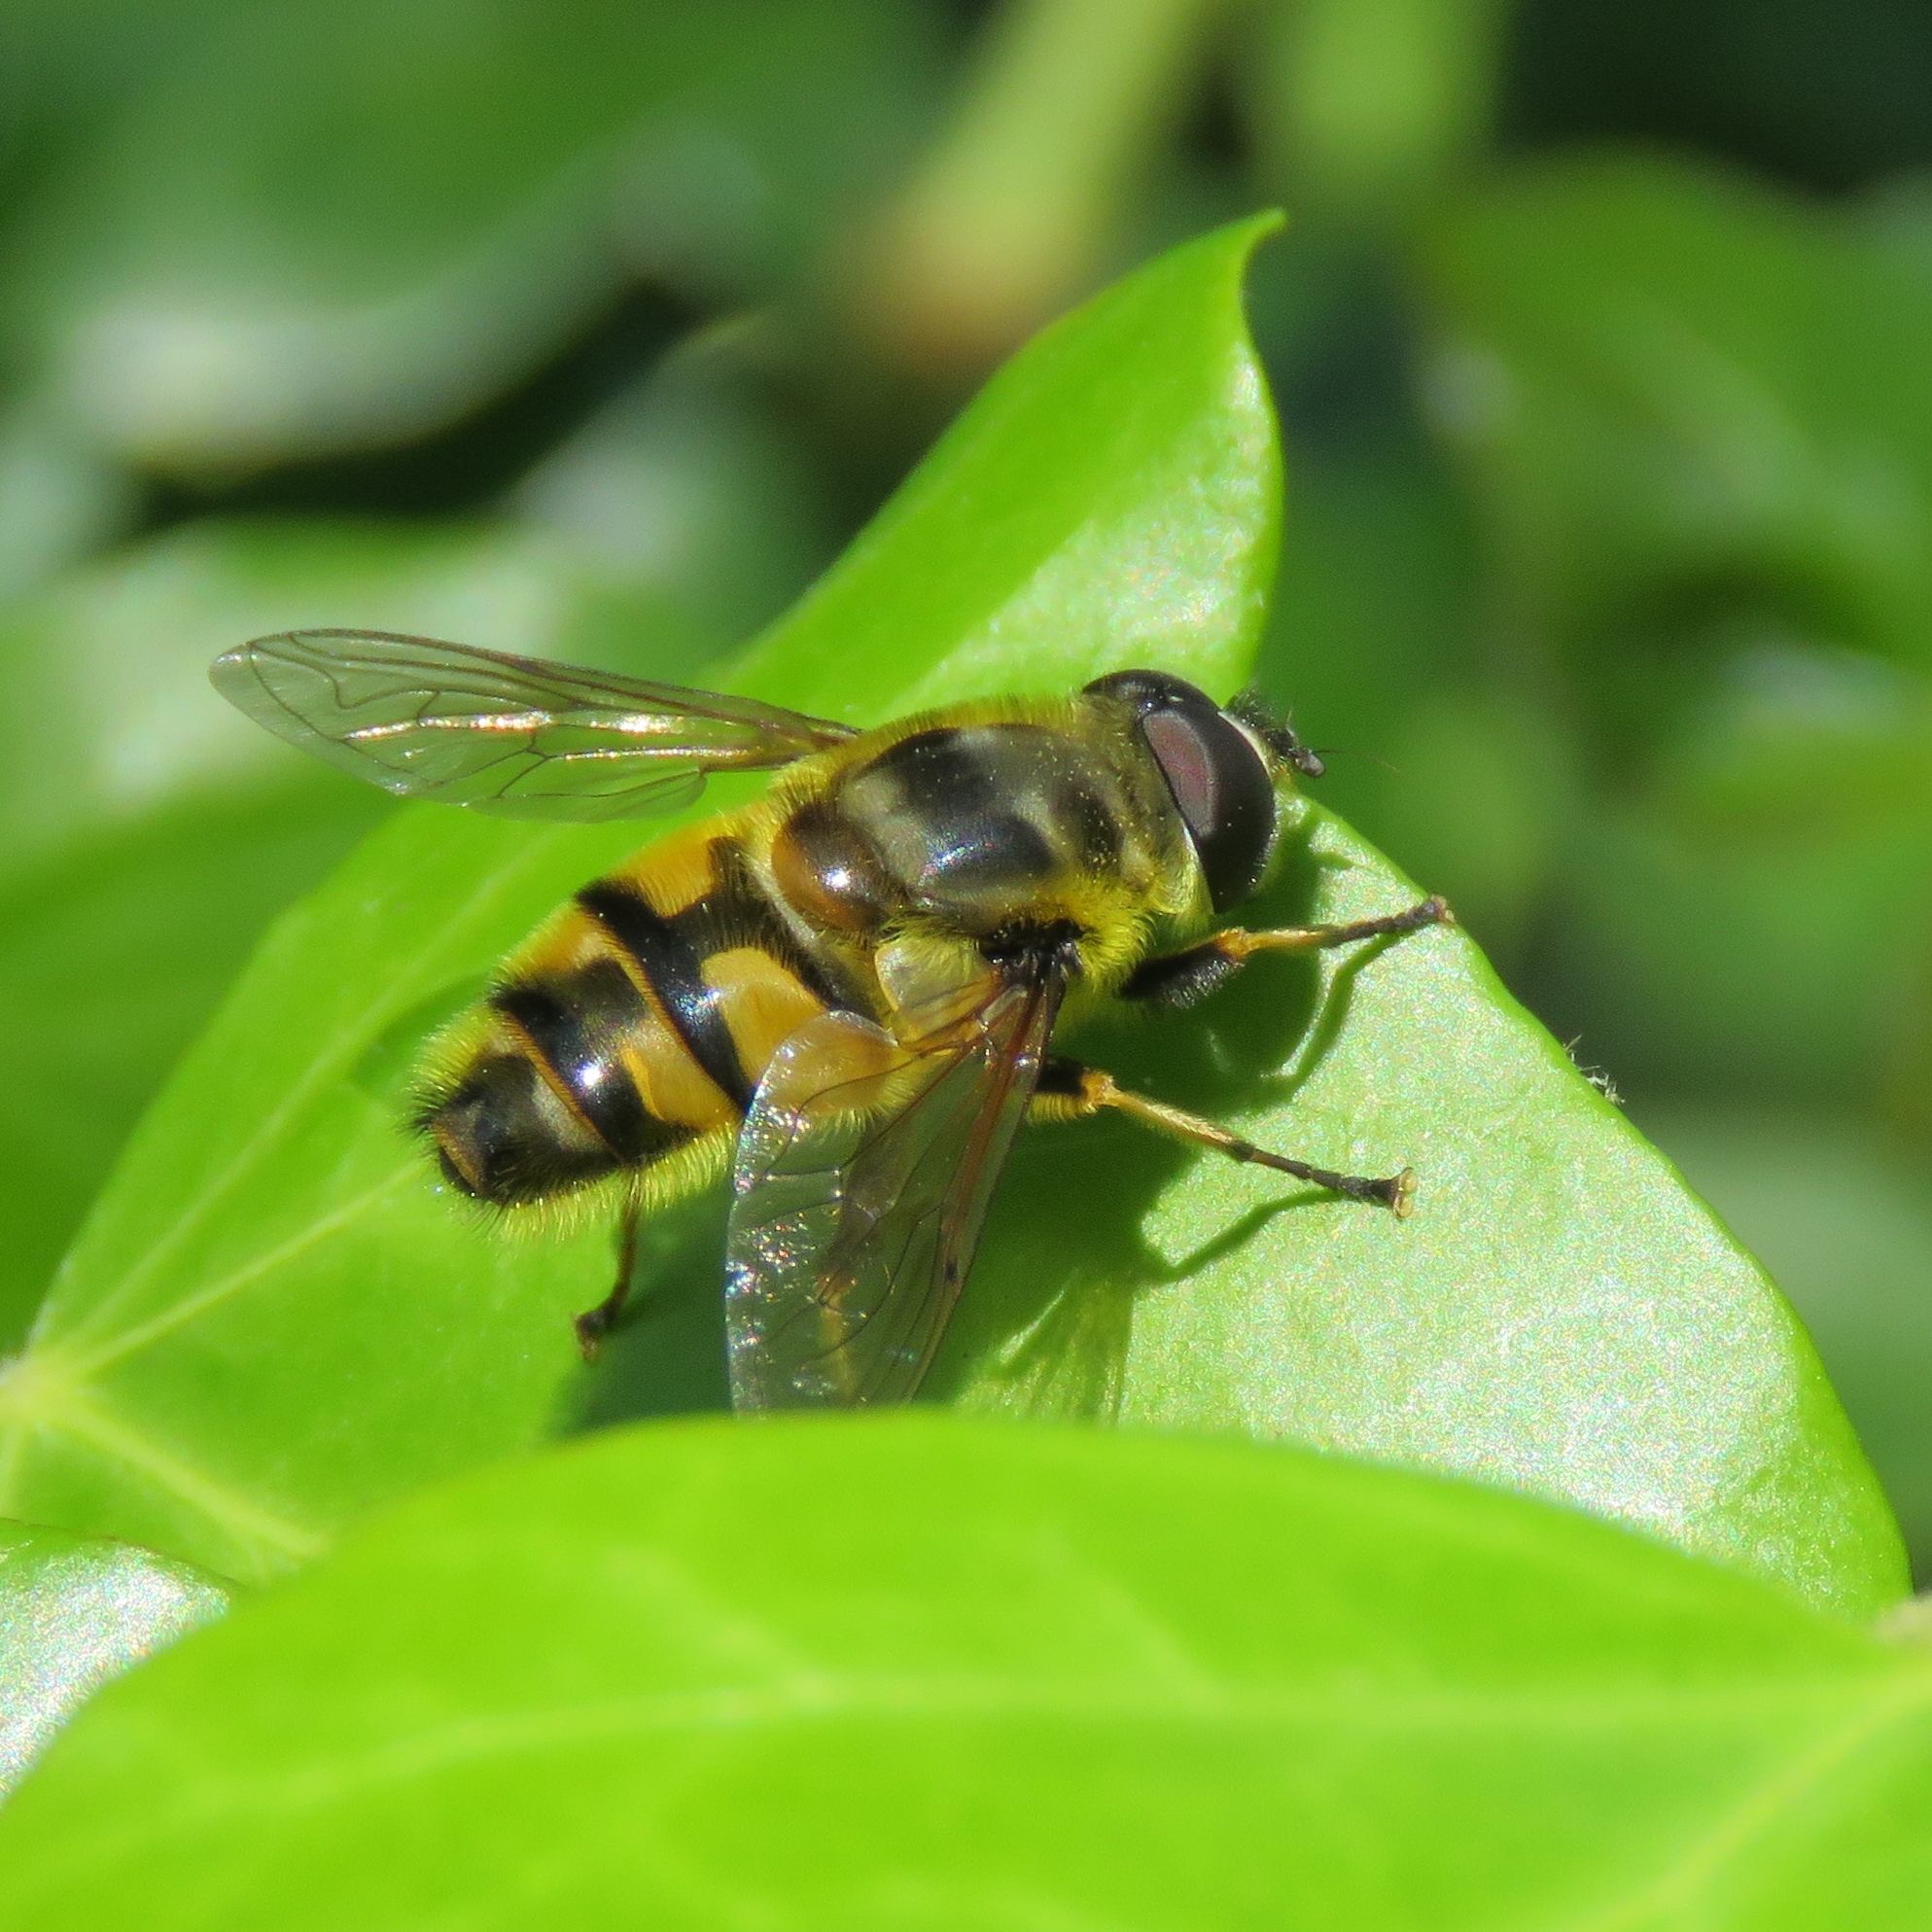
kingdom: Animalia
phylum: Arthropoda
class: Insecta
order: Diptera
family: Syrphidae
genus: Myathropa
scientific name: Myathropa florea
